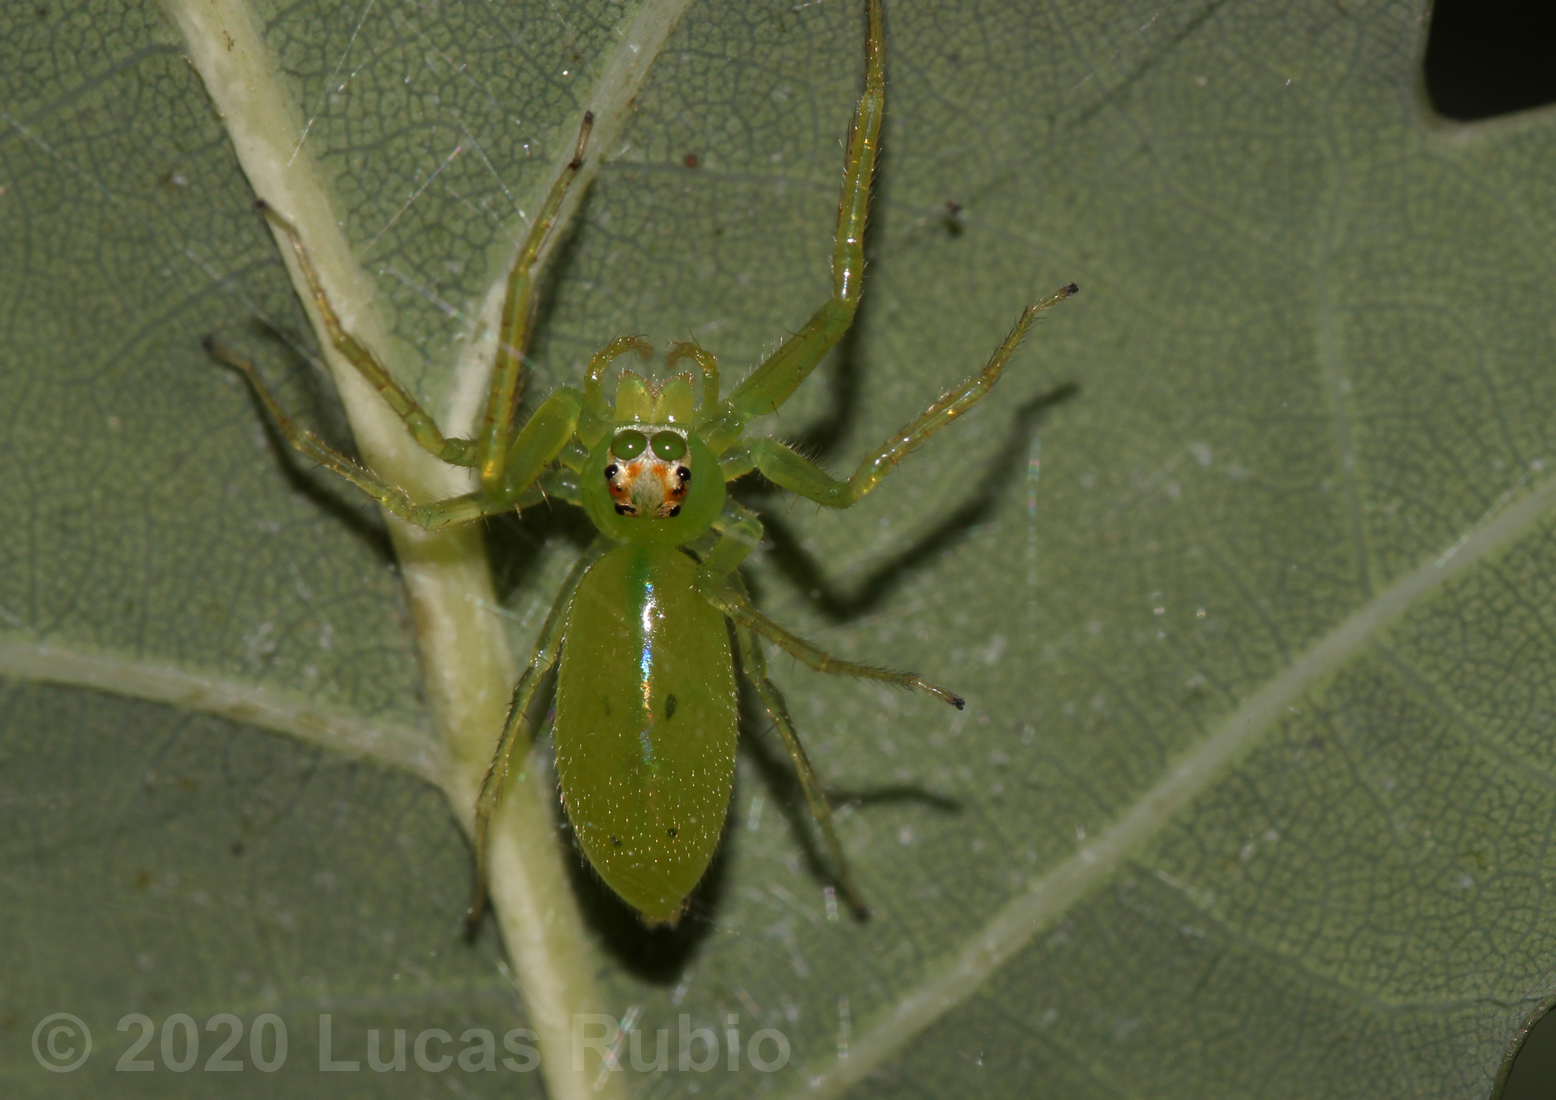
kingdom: Animalia
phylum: Arthropoda
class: Arachnida
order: Araneae
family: Salticidae
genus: Lyssomanes
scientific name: Lyssomanes pauper
